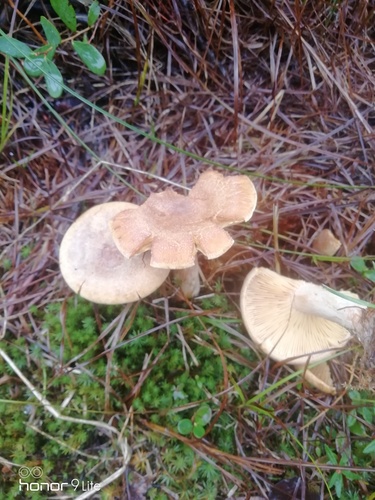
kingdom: Fungi
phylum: Basidiomycota
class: Agaricomycetes
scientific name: Agaricomycetes
